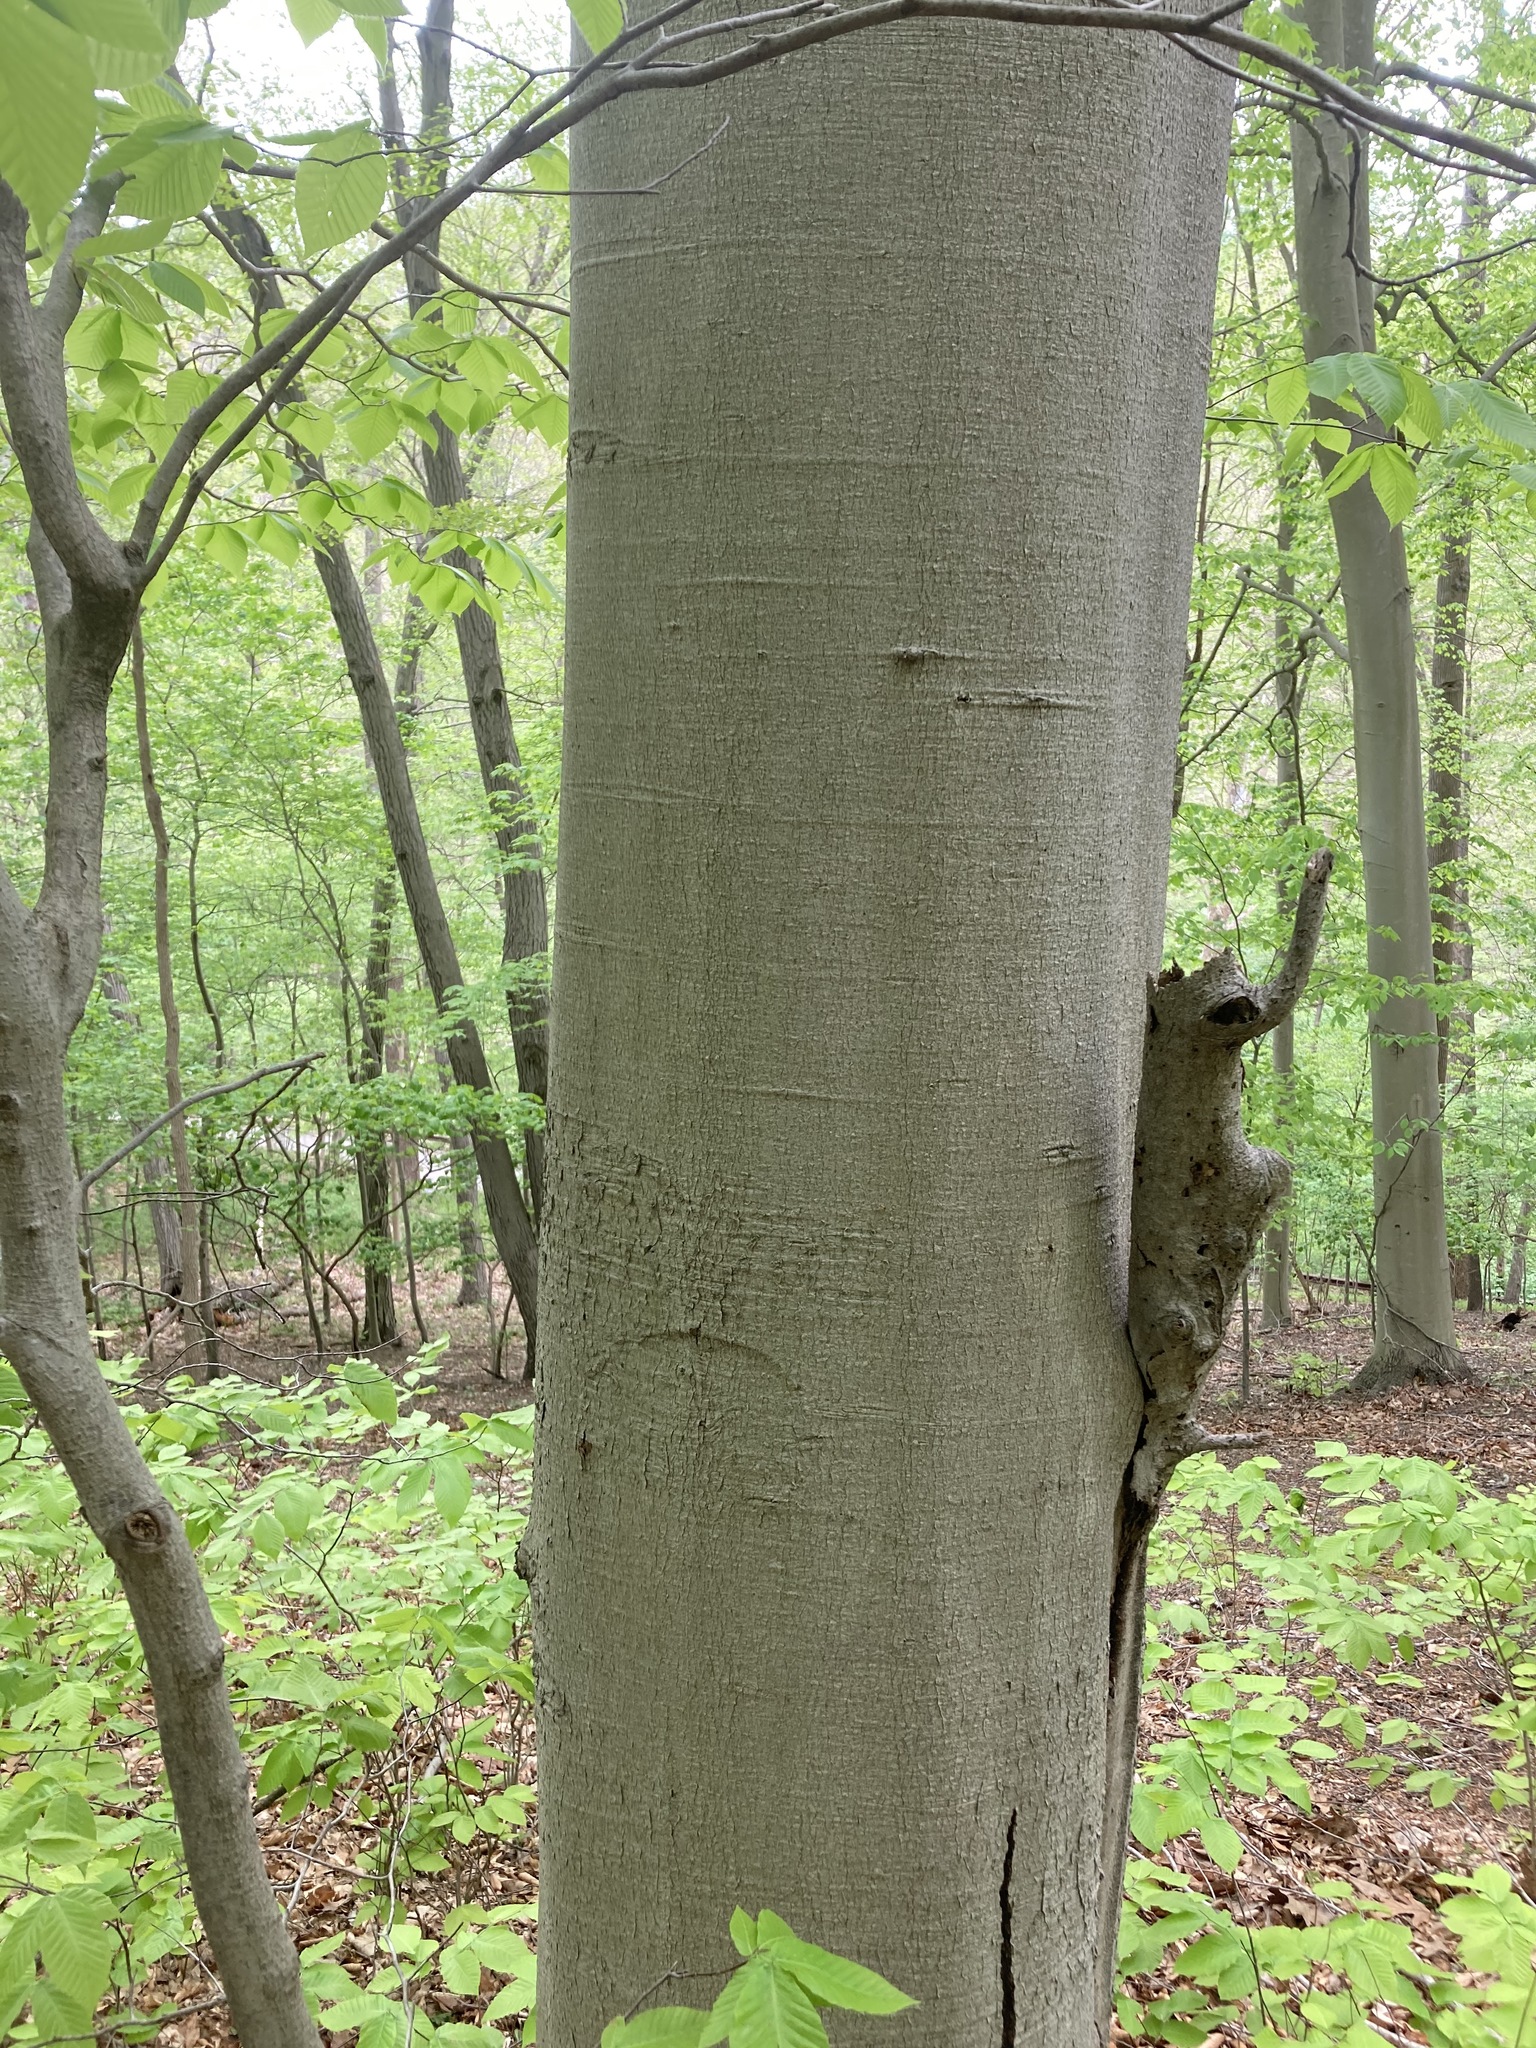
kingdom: Plantae
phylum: Tracheophyta
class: Magnoliopsida
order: Fagales
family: Fagaceae
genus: Fagus
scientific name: Fagus grandifolia
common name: American beech
